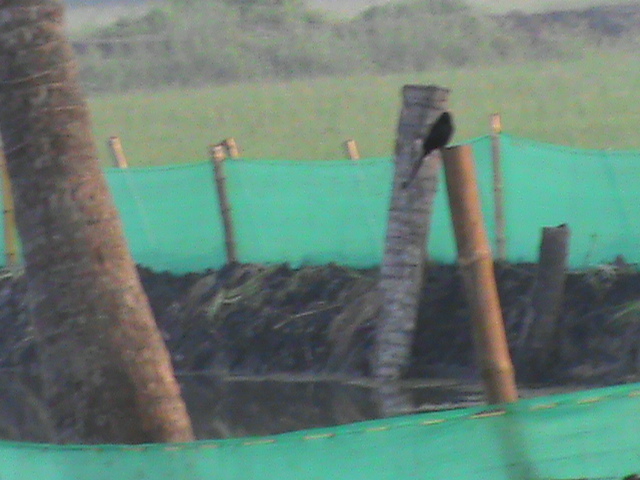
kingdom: Animalia
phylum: Chordata
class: Aves
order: Passeriformes
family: Dicruridae
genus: Dicrurus
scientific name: Dicrurus macrocercus
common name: Black drongo
